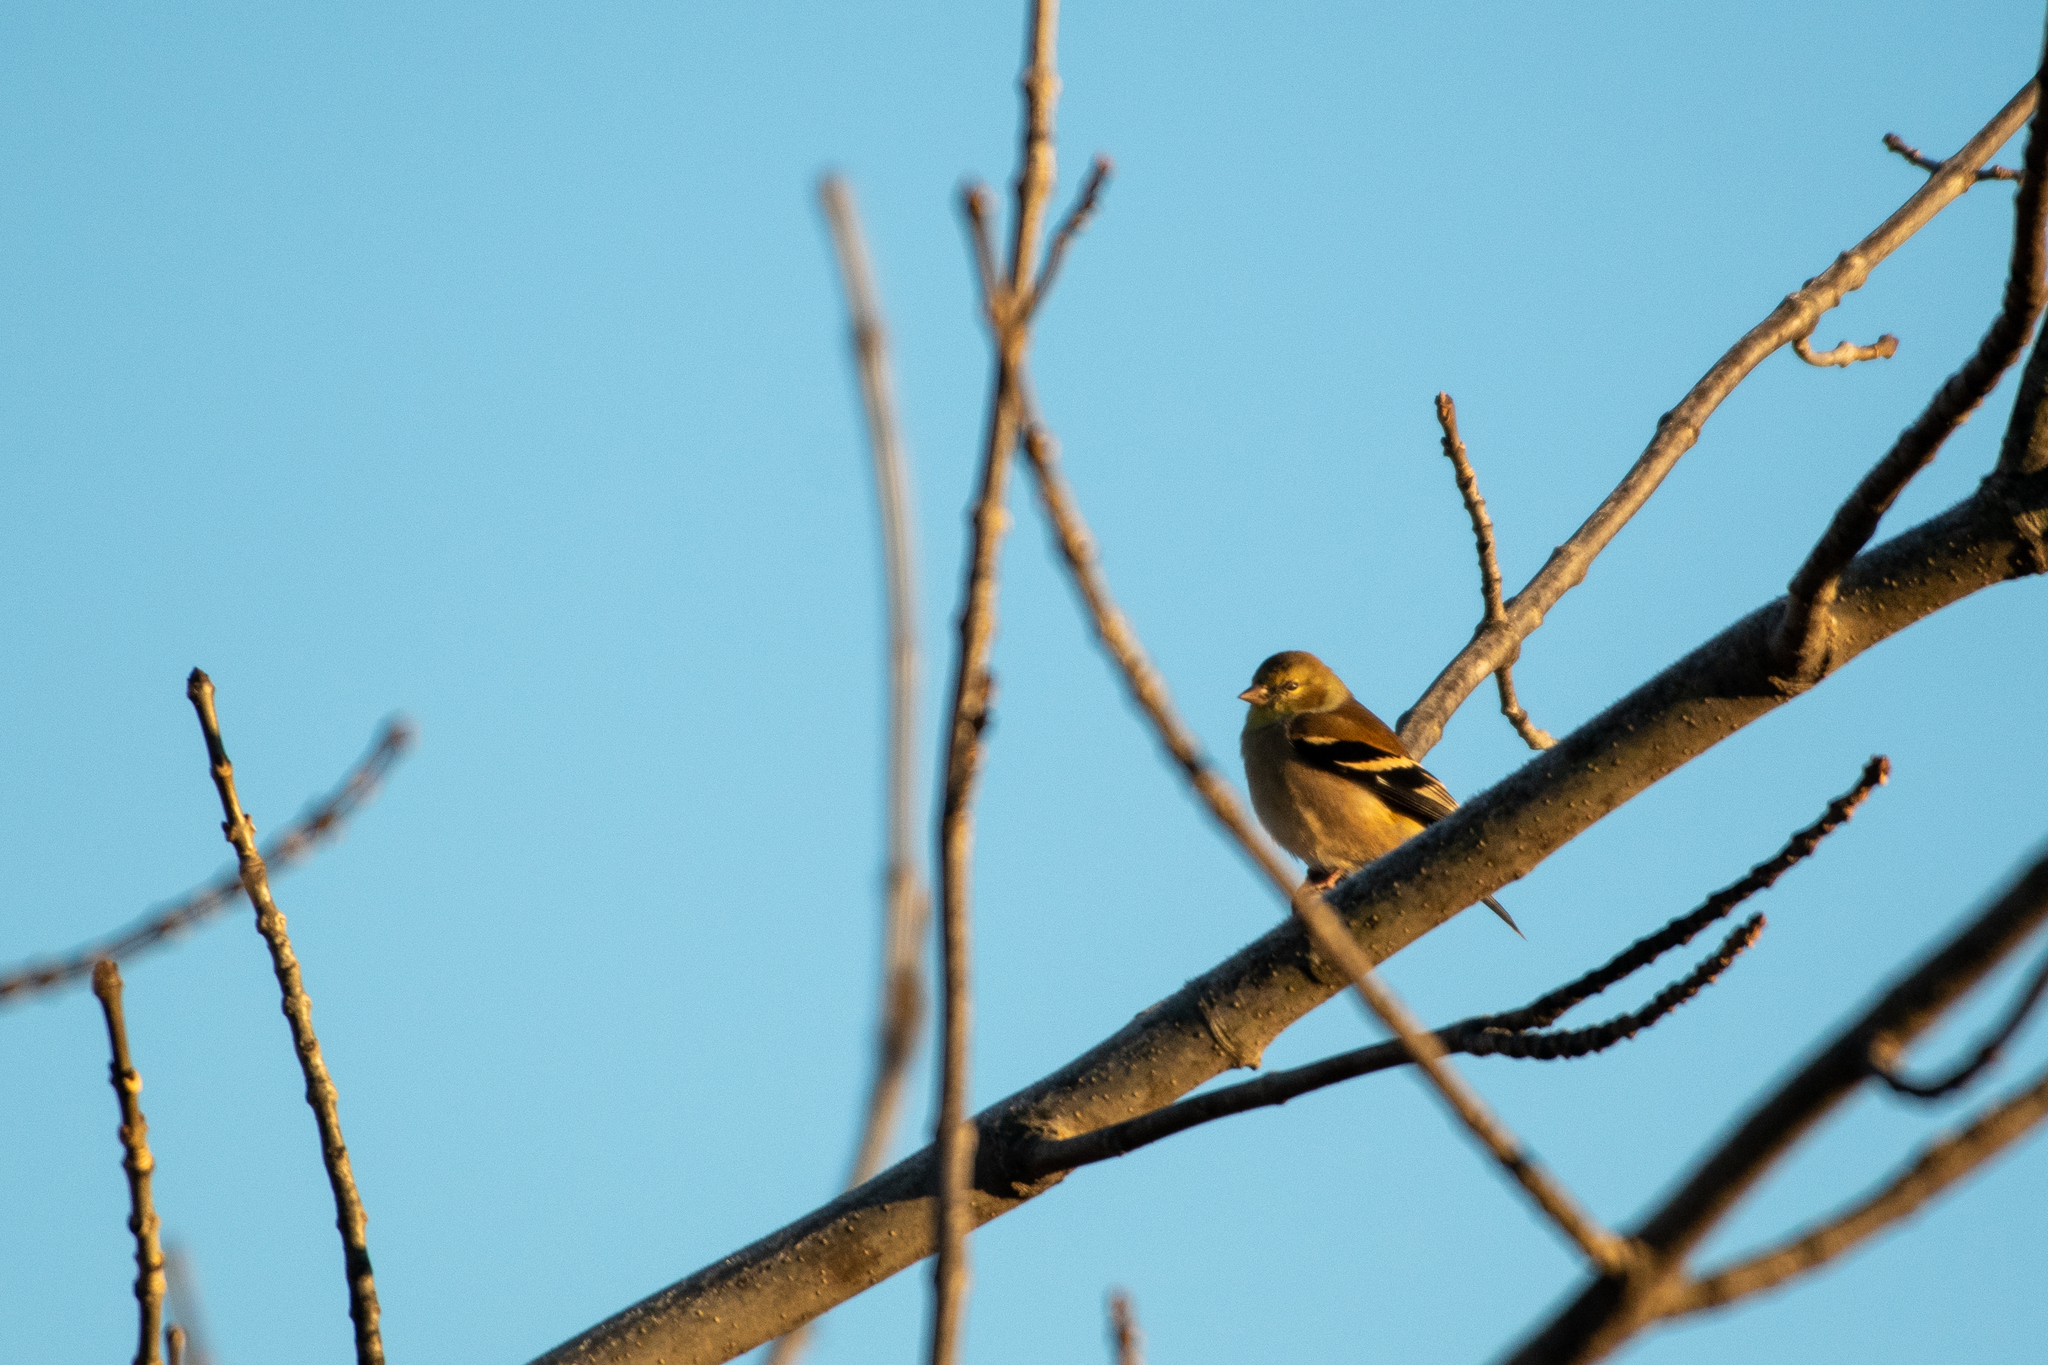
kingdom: Animalia
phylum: Chordata
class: Aves
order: Passeriformes
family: Fringillidae
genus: Spinus
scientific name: Spinus tristis
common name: American goldfinch
